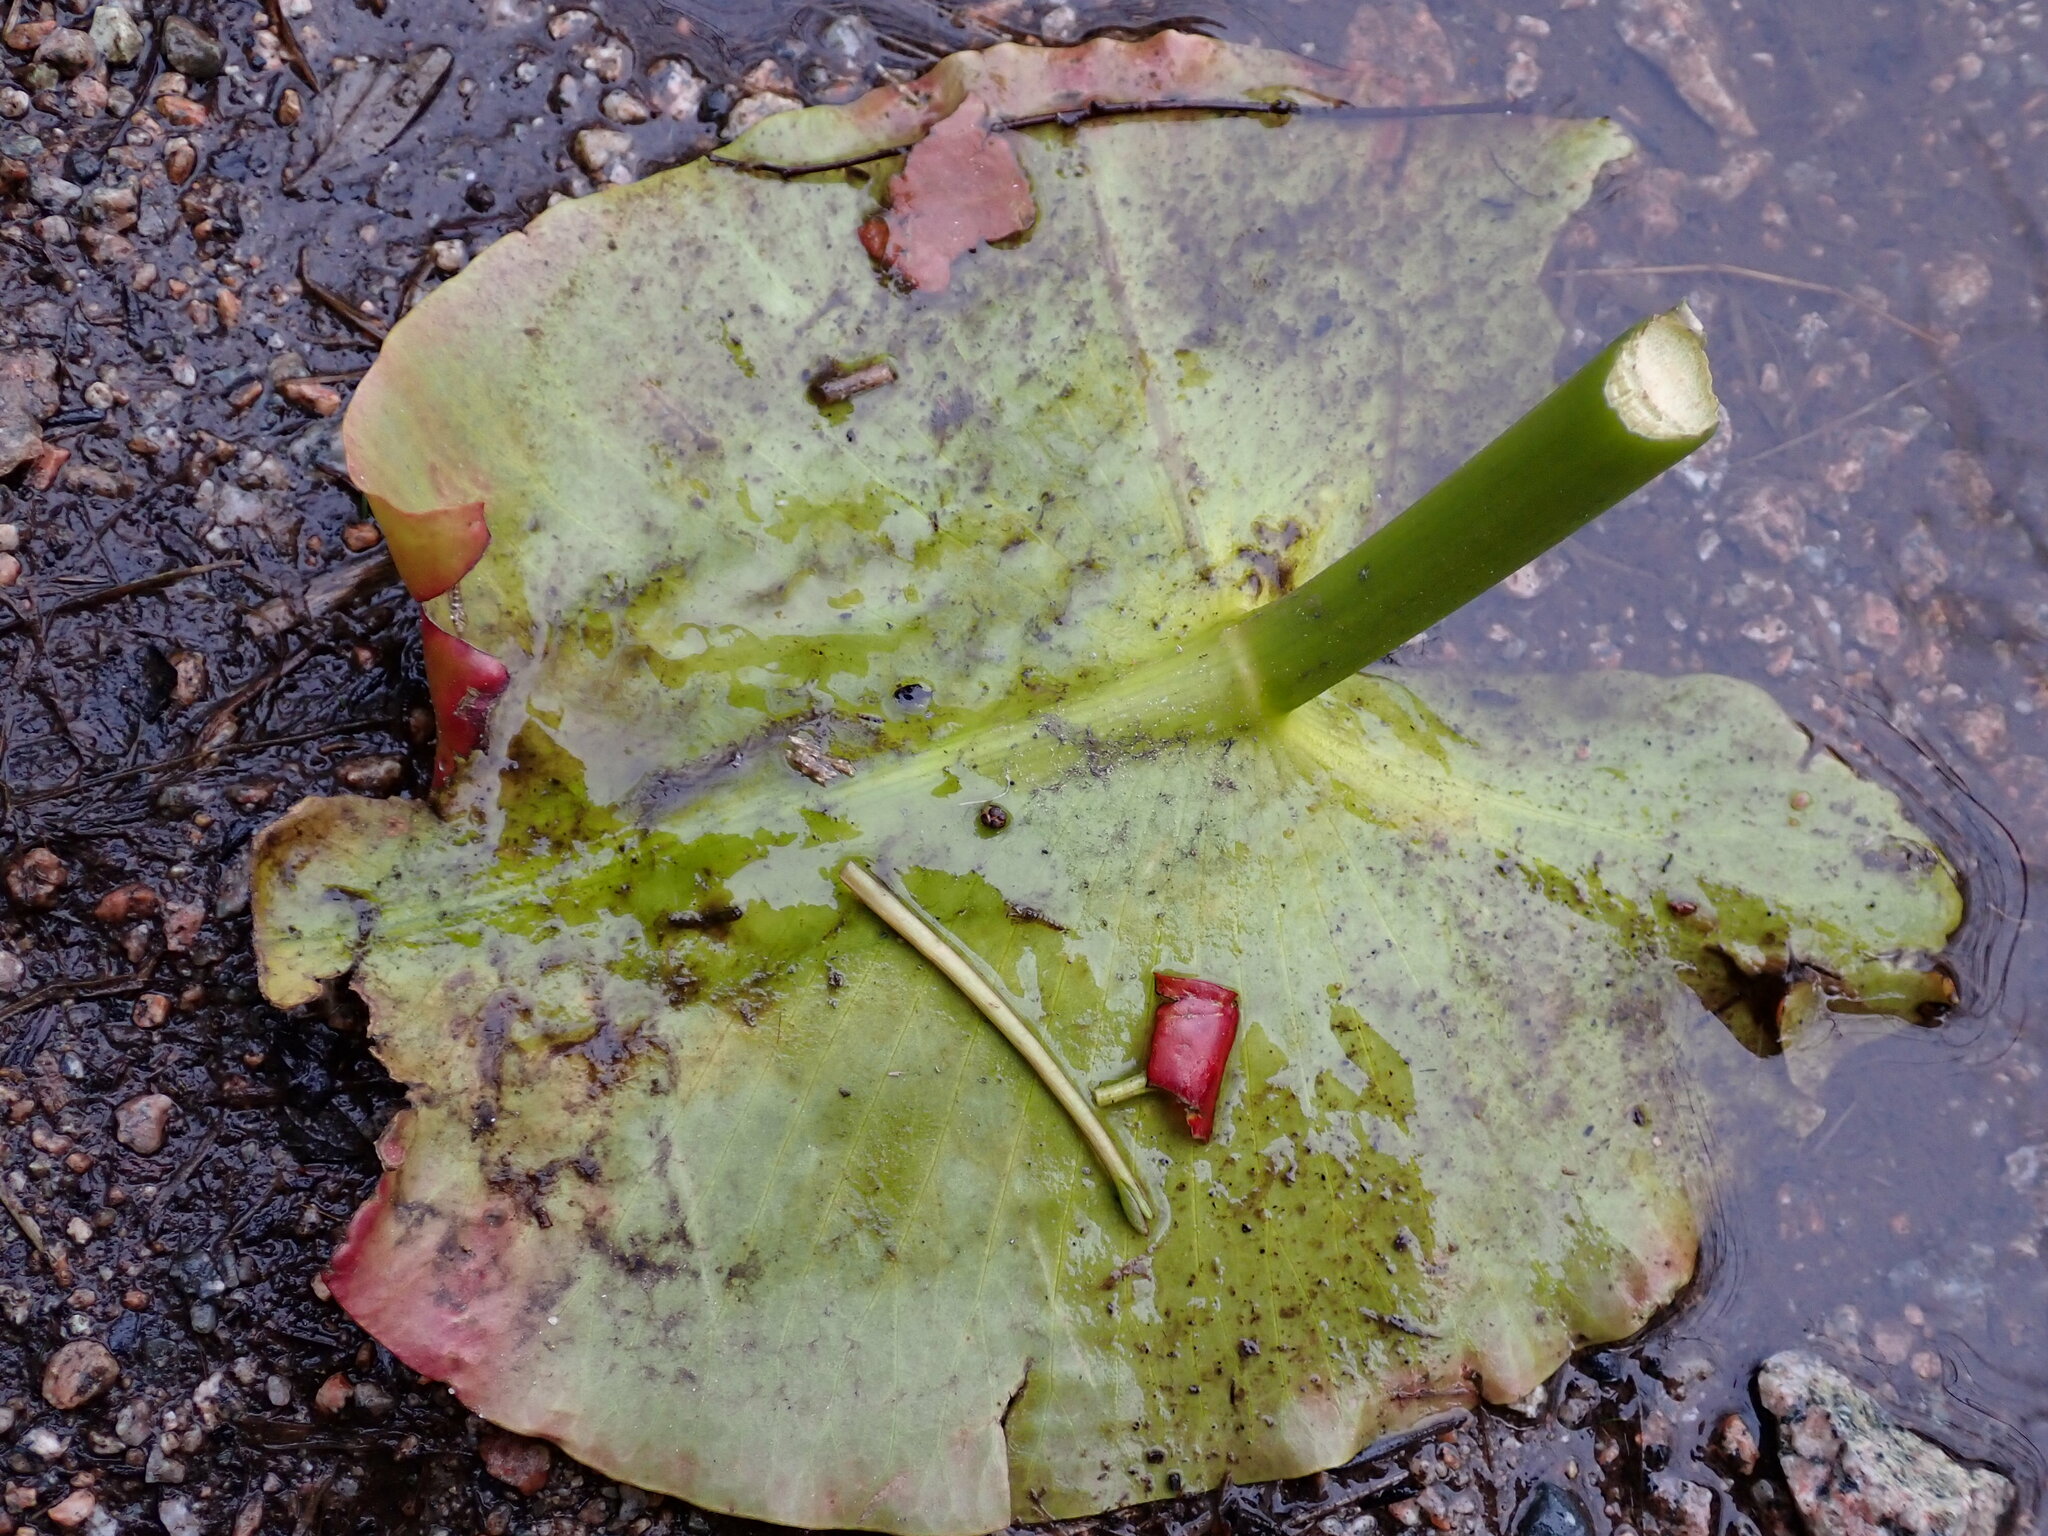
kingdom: Plantae
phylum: Tracheophyta
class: Magnoliopsida
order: Nymphaeales
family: Nymphaeaceae
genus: Nuphar
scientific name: Nuphar polysepala
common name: Rocky mountain cow-lily
